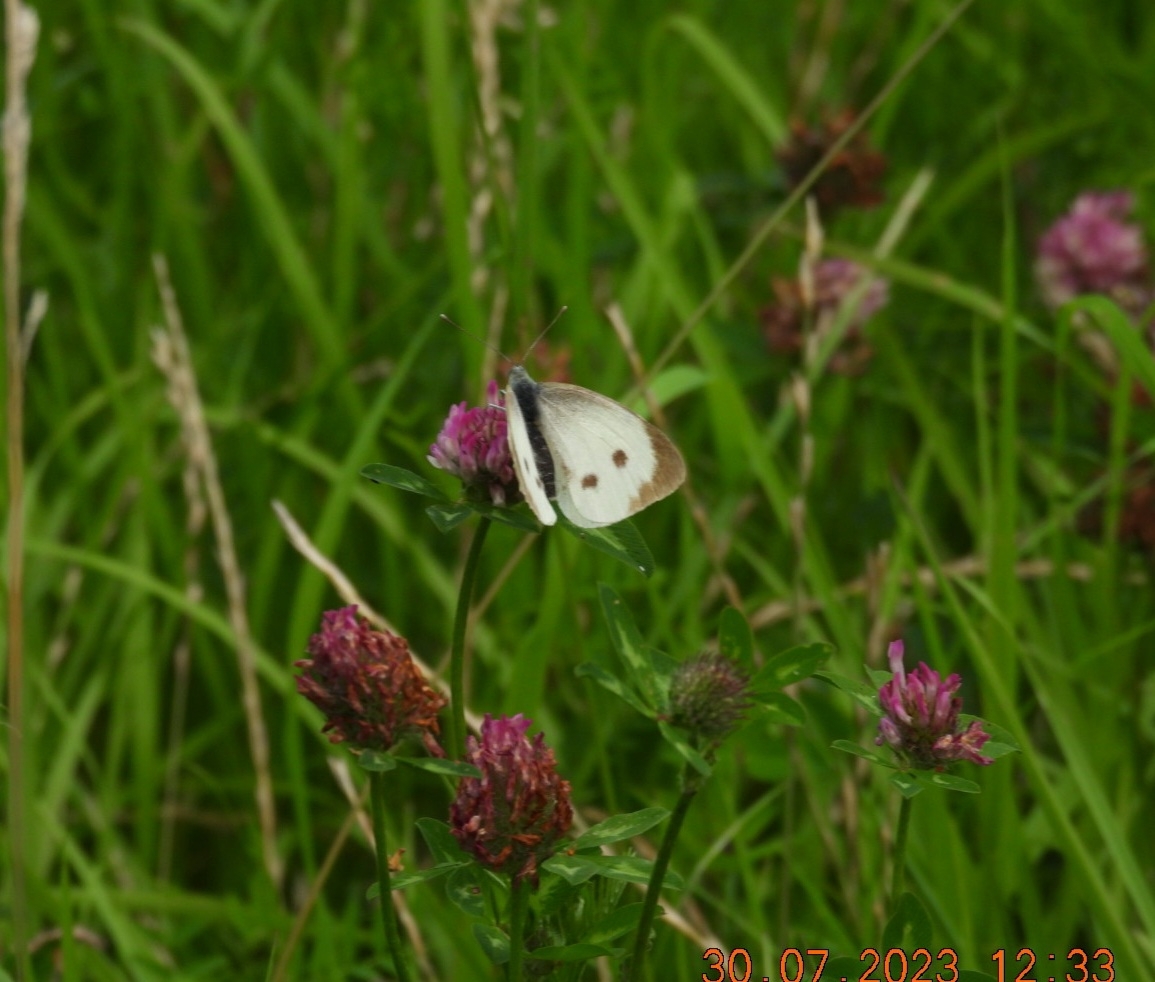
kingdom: Animalia
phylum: Arthropoda
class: Insecta
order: Lepidoptera
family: Pieridae
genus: Pieris
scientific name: Pieris brassicae
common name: Large white
